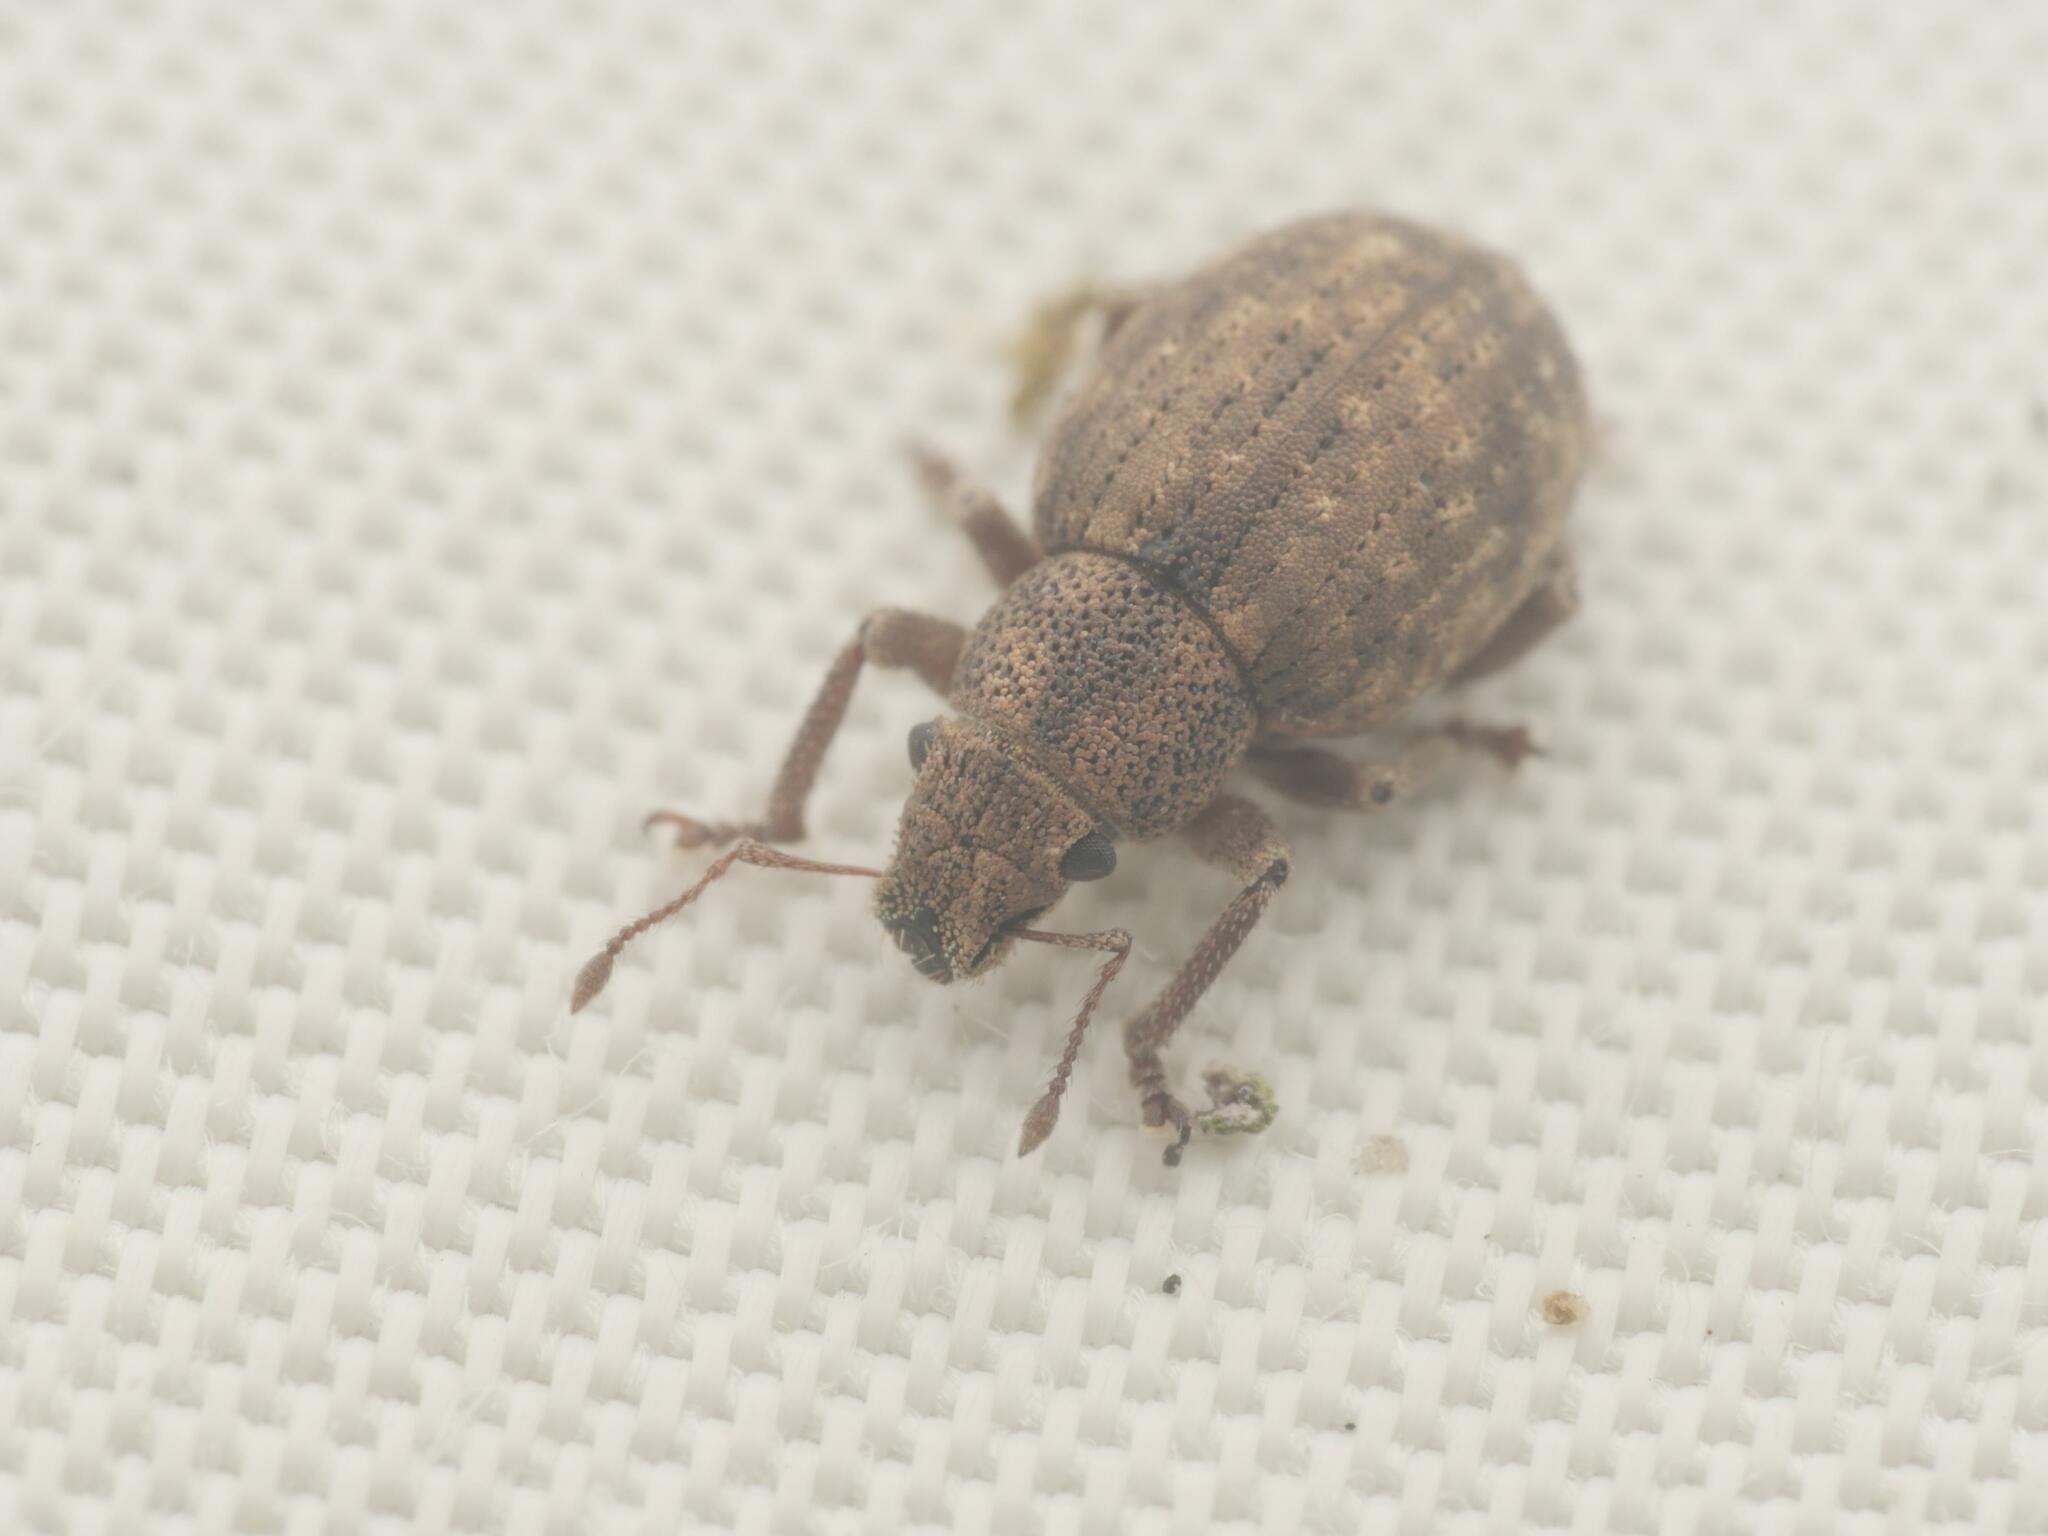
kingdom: Animalia
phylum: Arthropoda
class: Insecta
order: Coleoptera
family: Curculionidae
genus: Strophosoma
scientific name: Strophosoma capitatum
